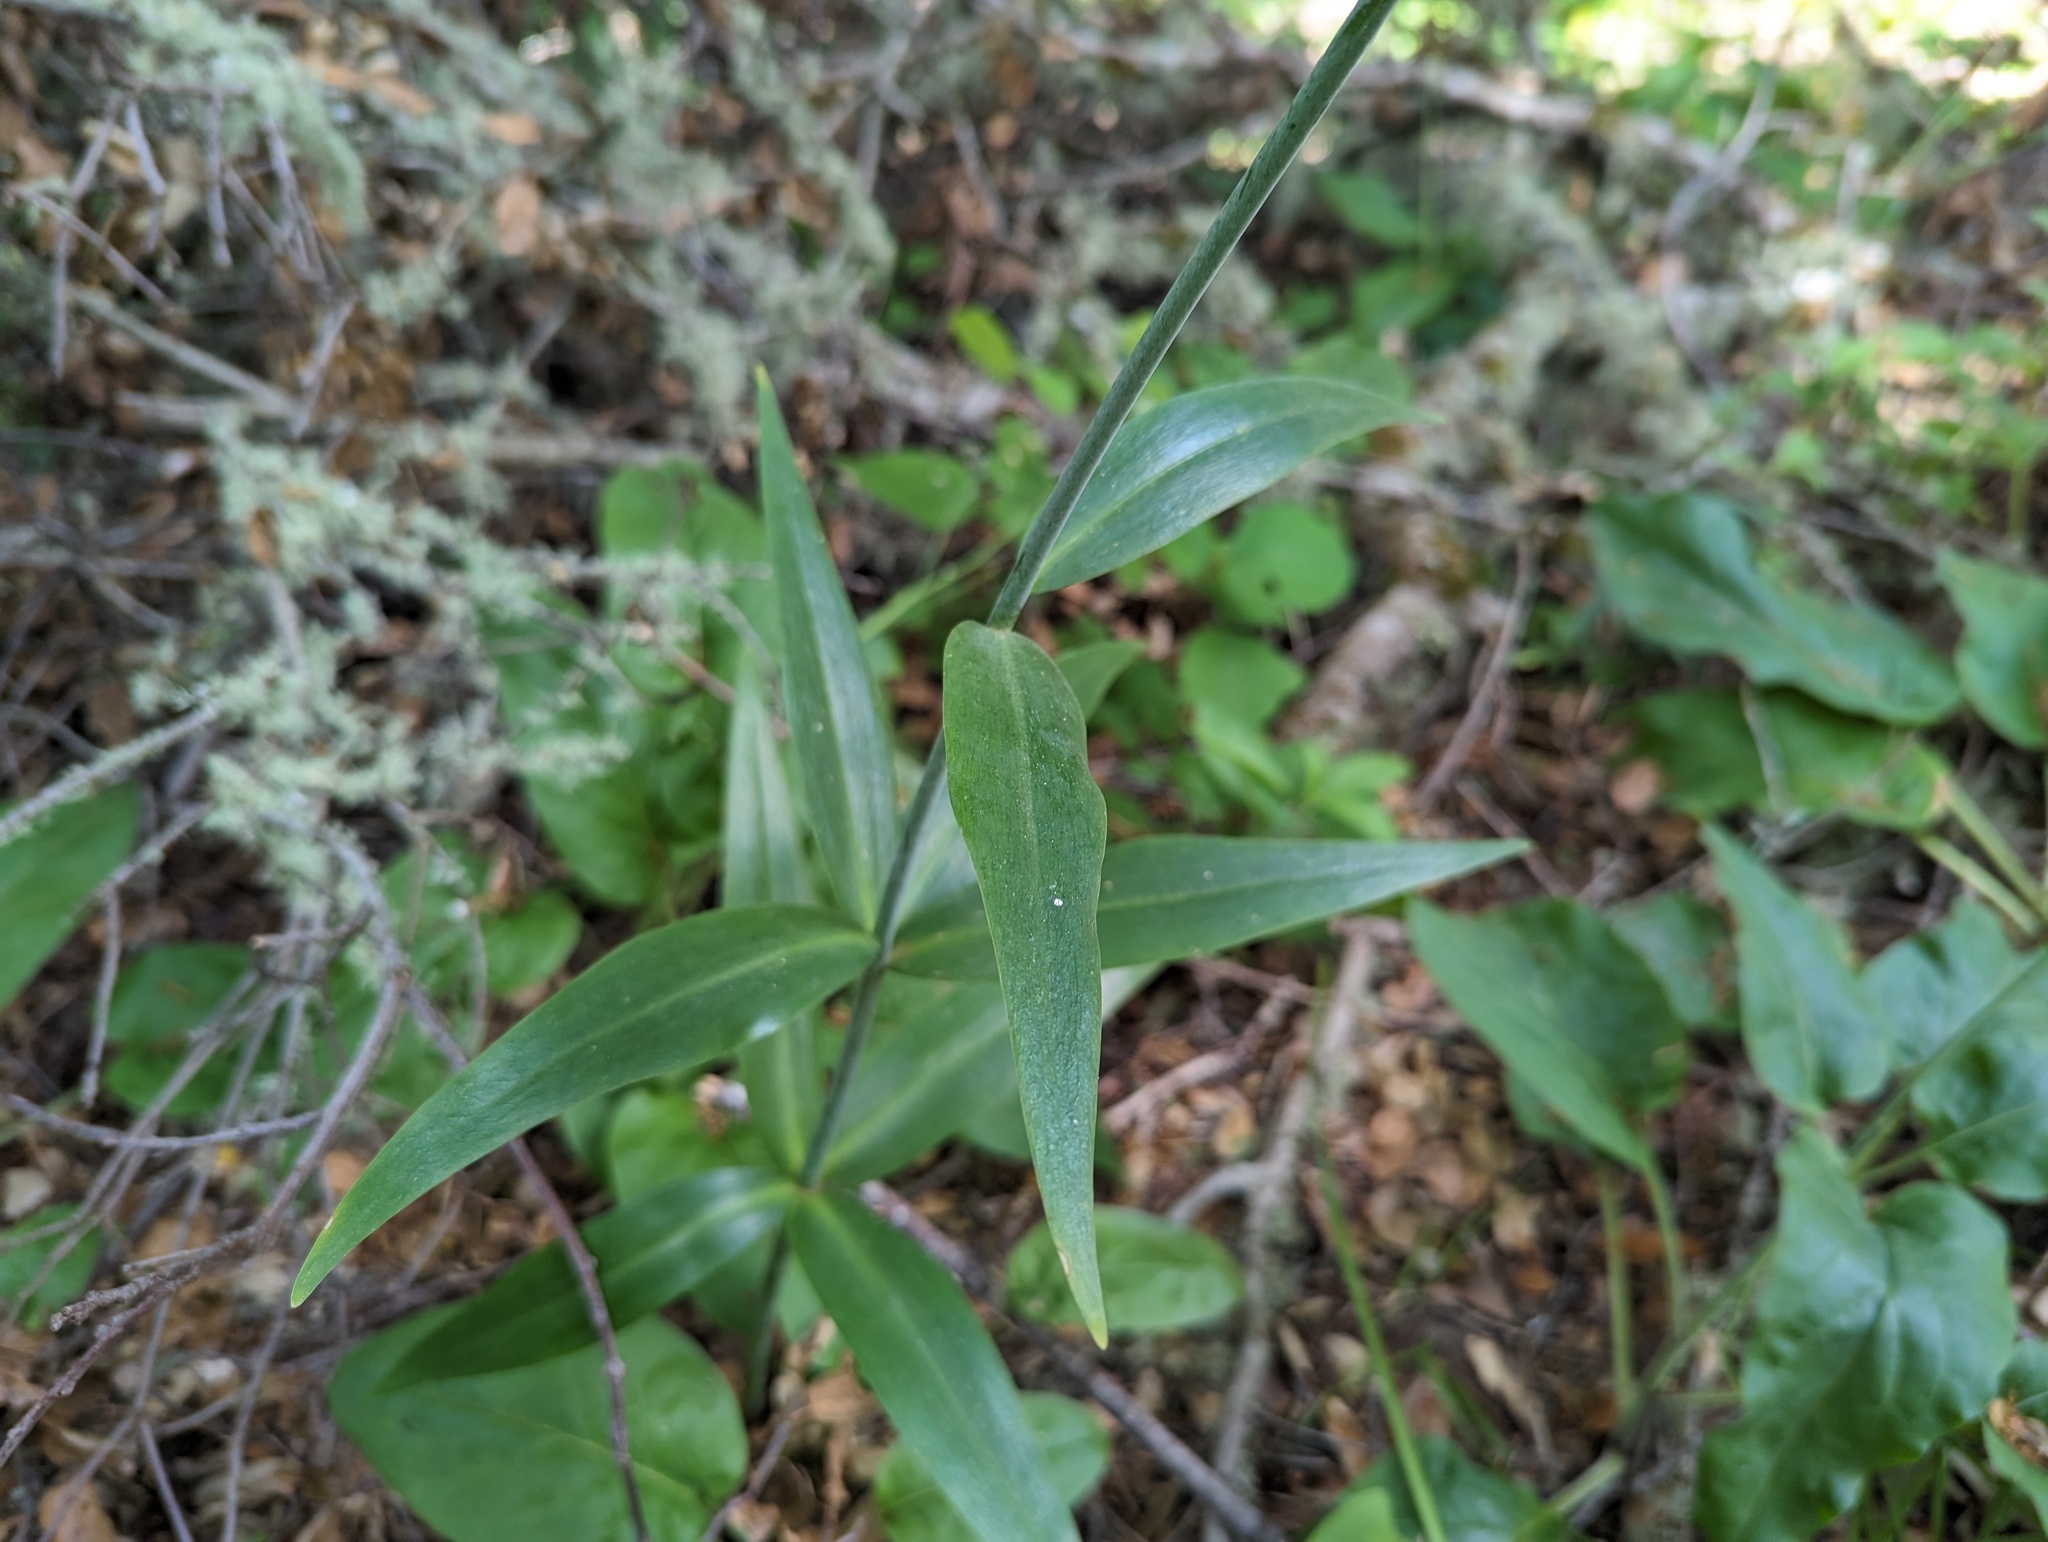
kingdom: Plantae
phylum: Tracheophyta
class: Liliopsida
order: Liliales
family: Liliaceae
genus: Fritillaria
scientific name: Fritillaria affinis
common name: Ojai fritillary
